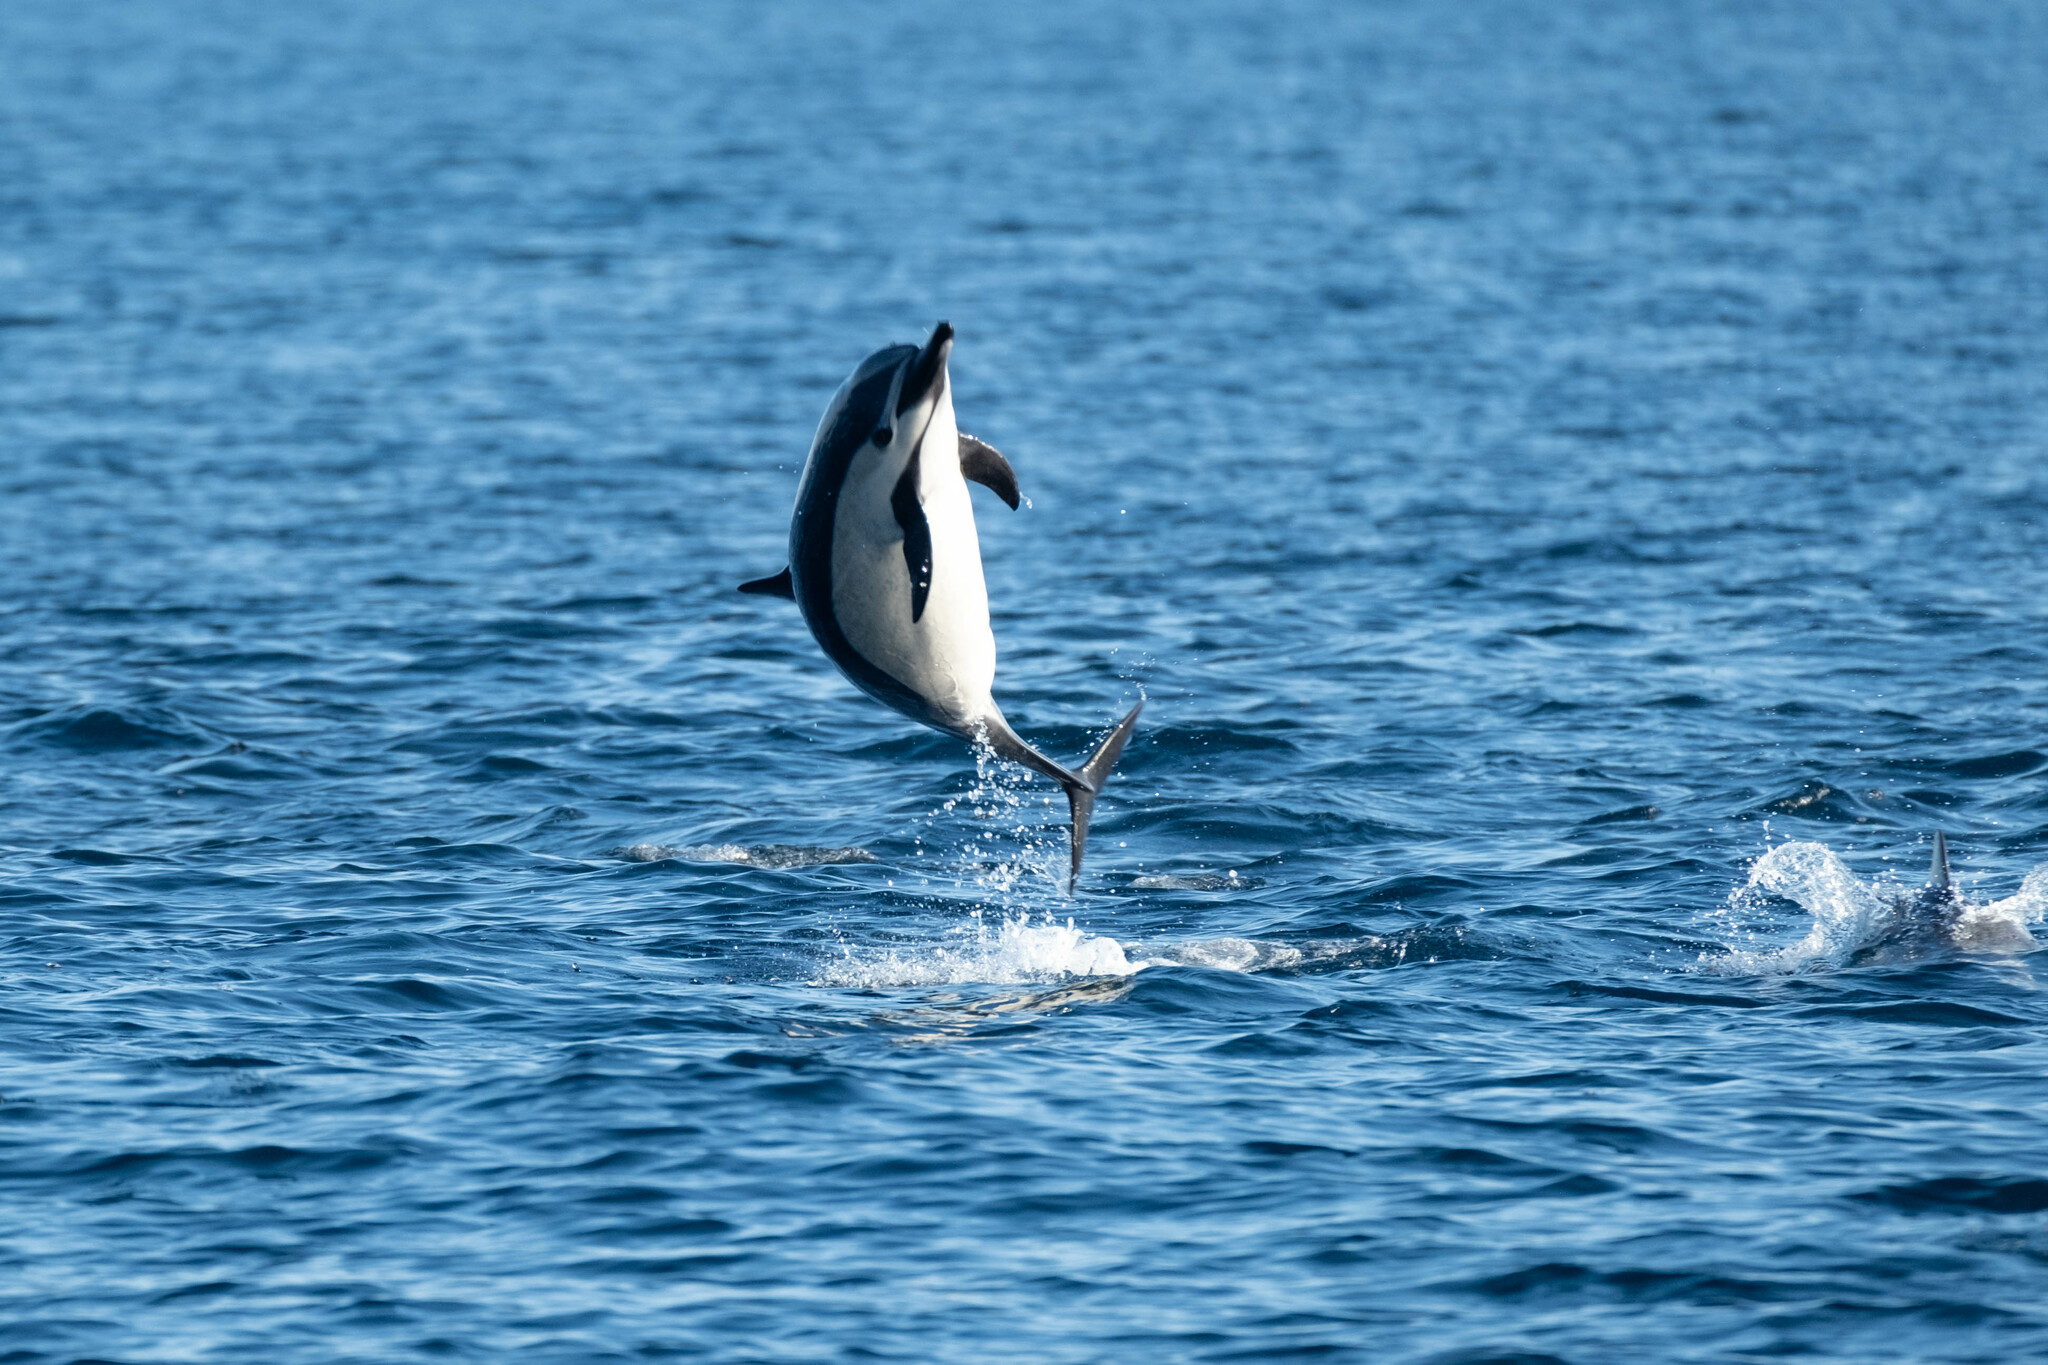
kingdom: Animalia
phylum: Chordata
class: Mammalia
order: Cetacea
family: Delphinidae
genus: Delphinus
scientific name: Delphinus delphis
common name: Common dolphin
